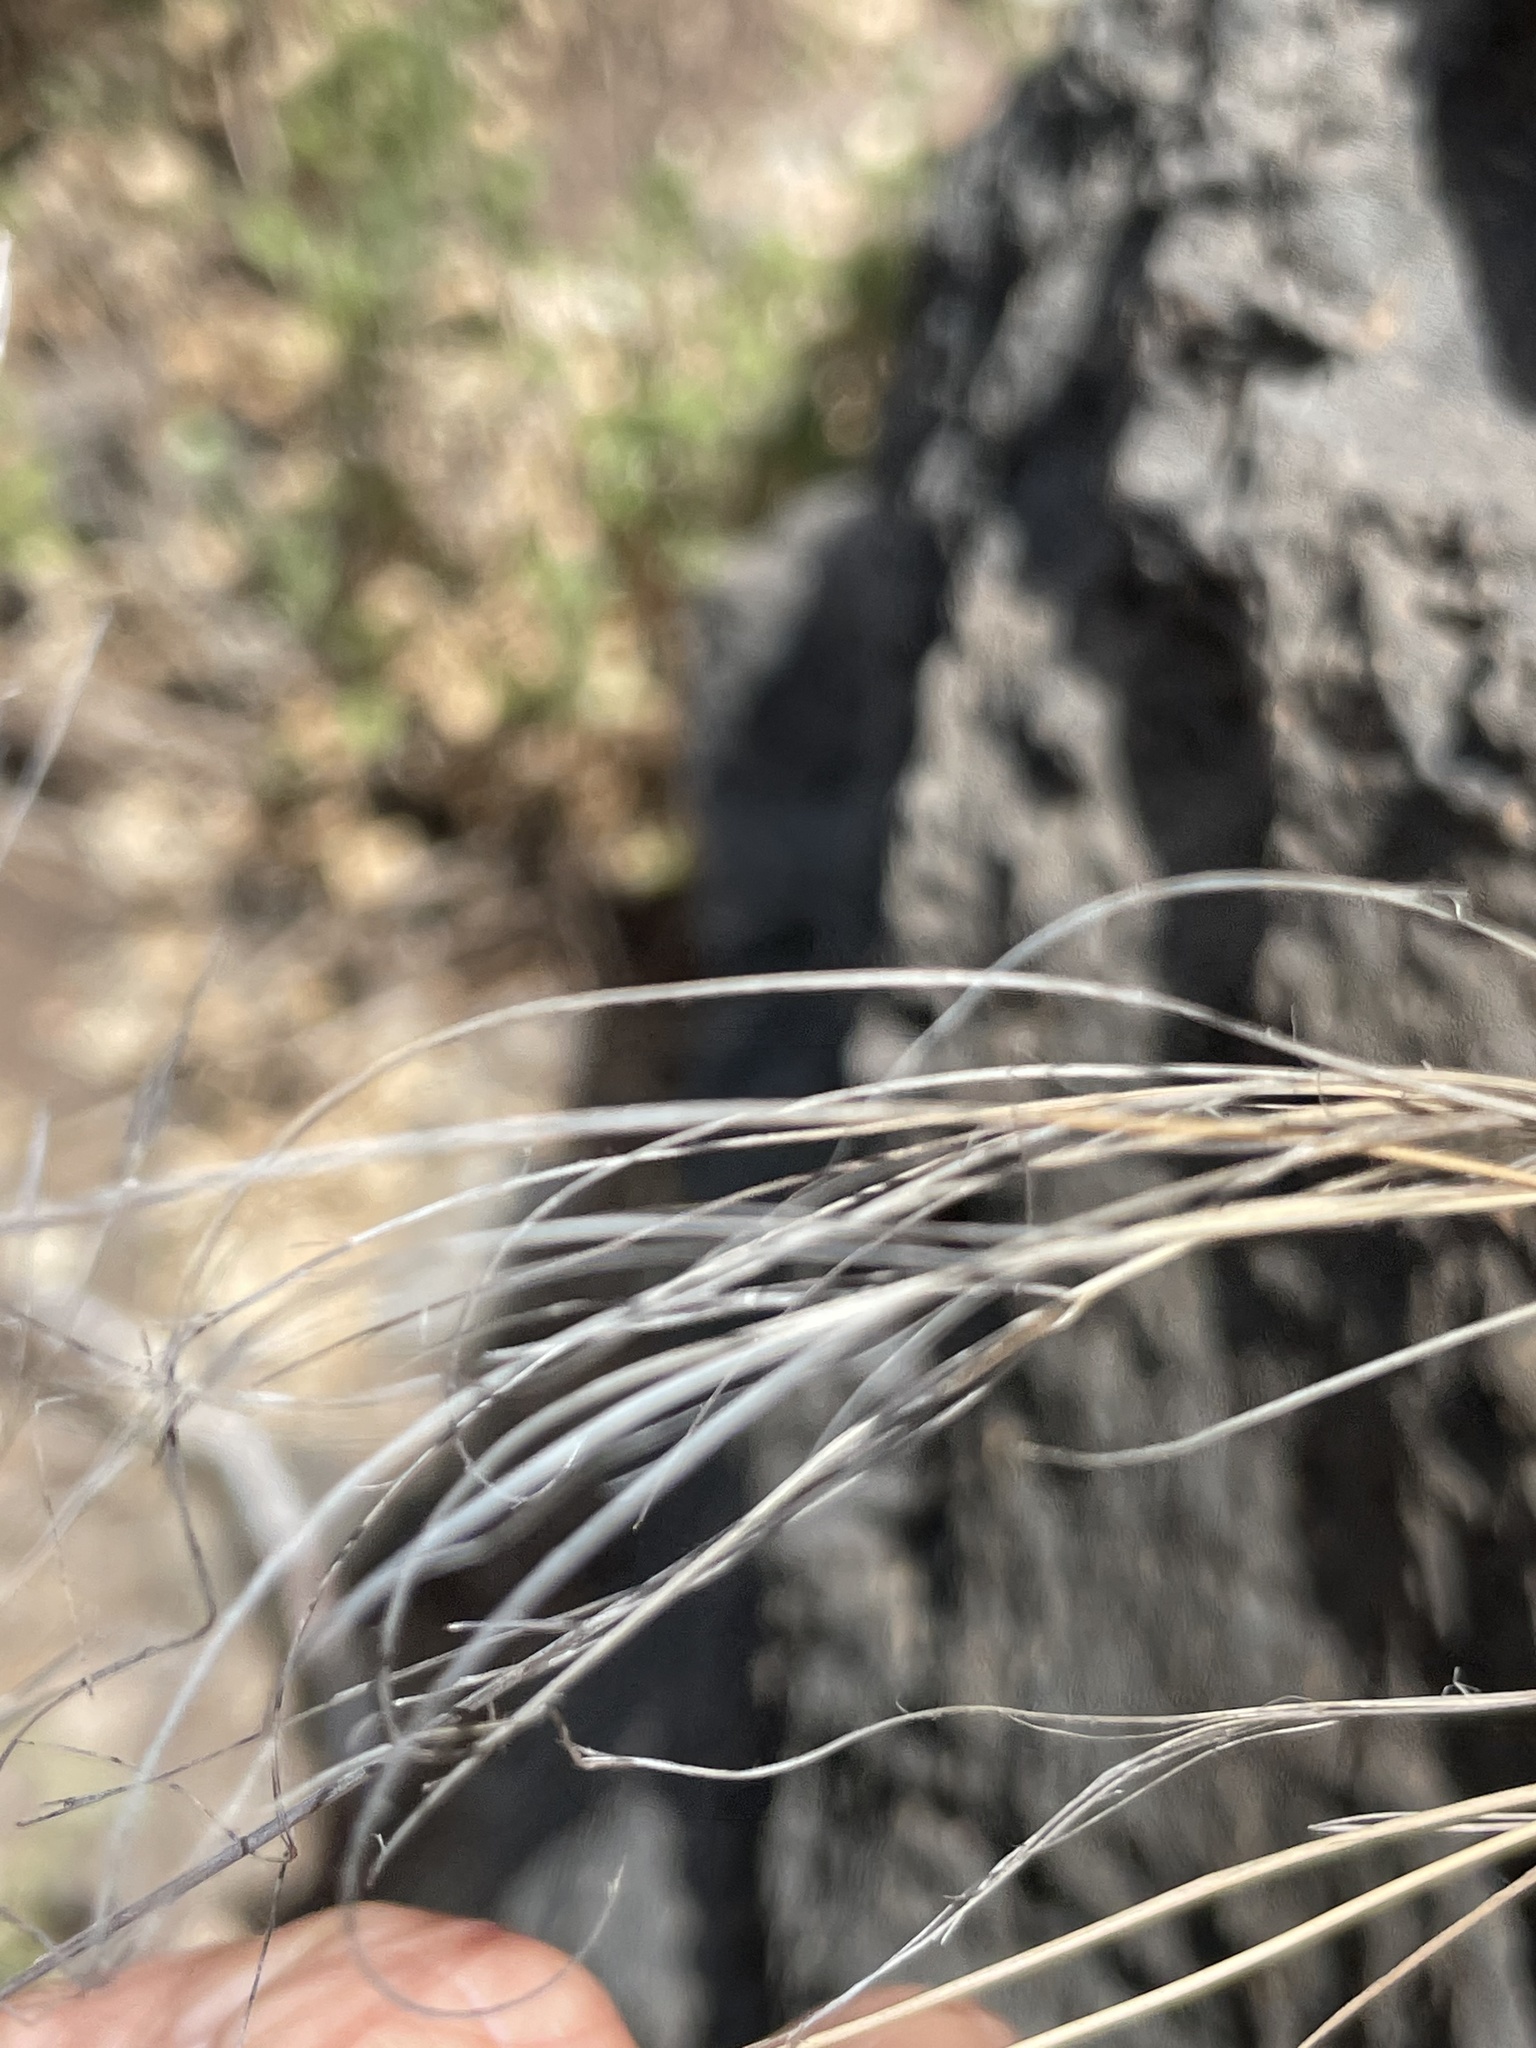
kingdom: Plantae
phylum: Tracheophyta
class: Liliopsida
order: Poales
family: Poaceae
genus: Aristida
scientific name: Aristida tenuifolia
